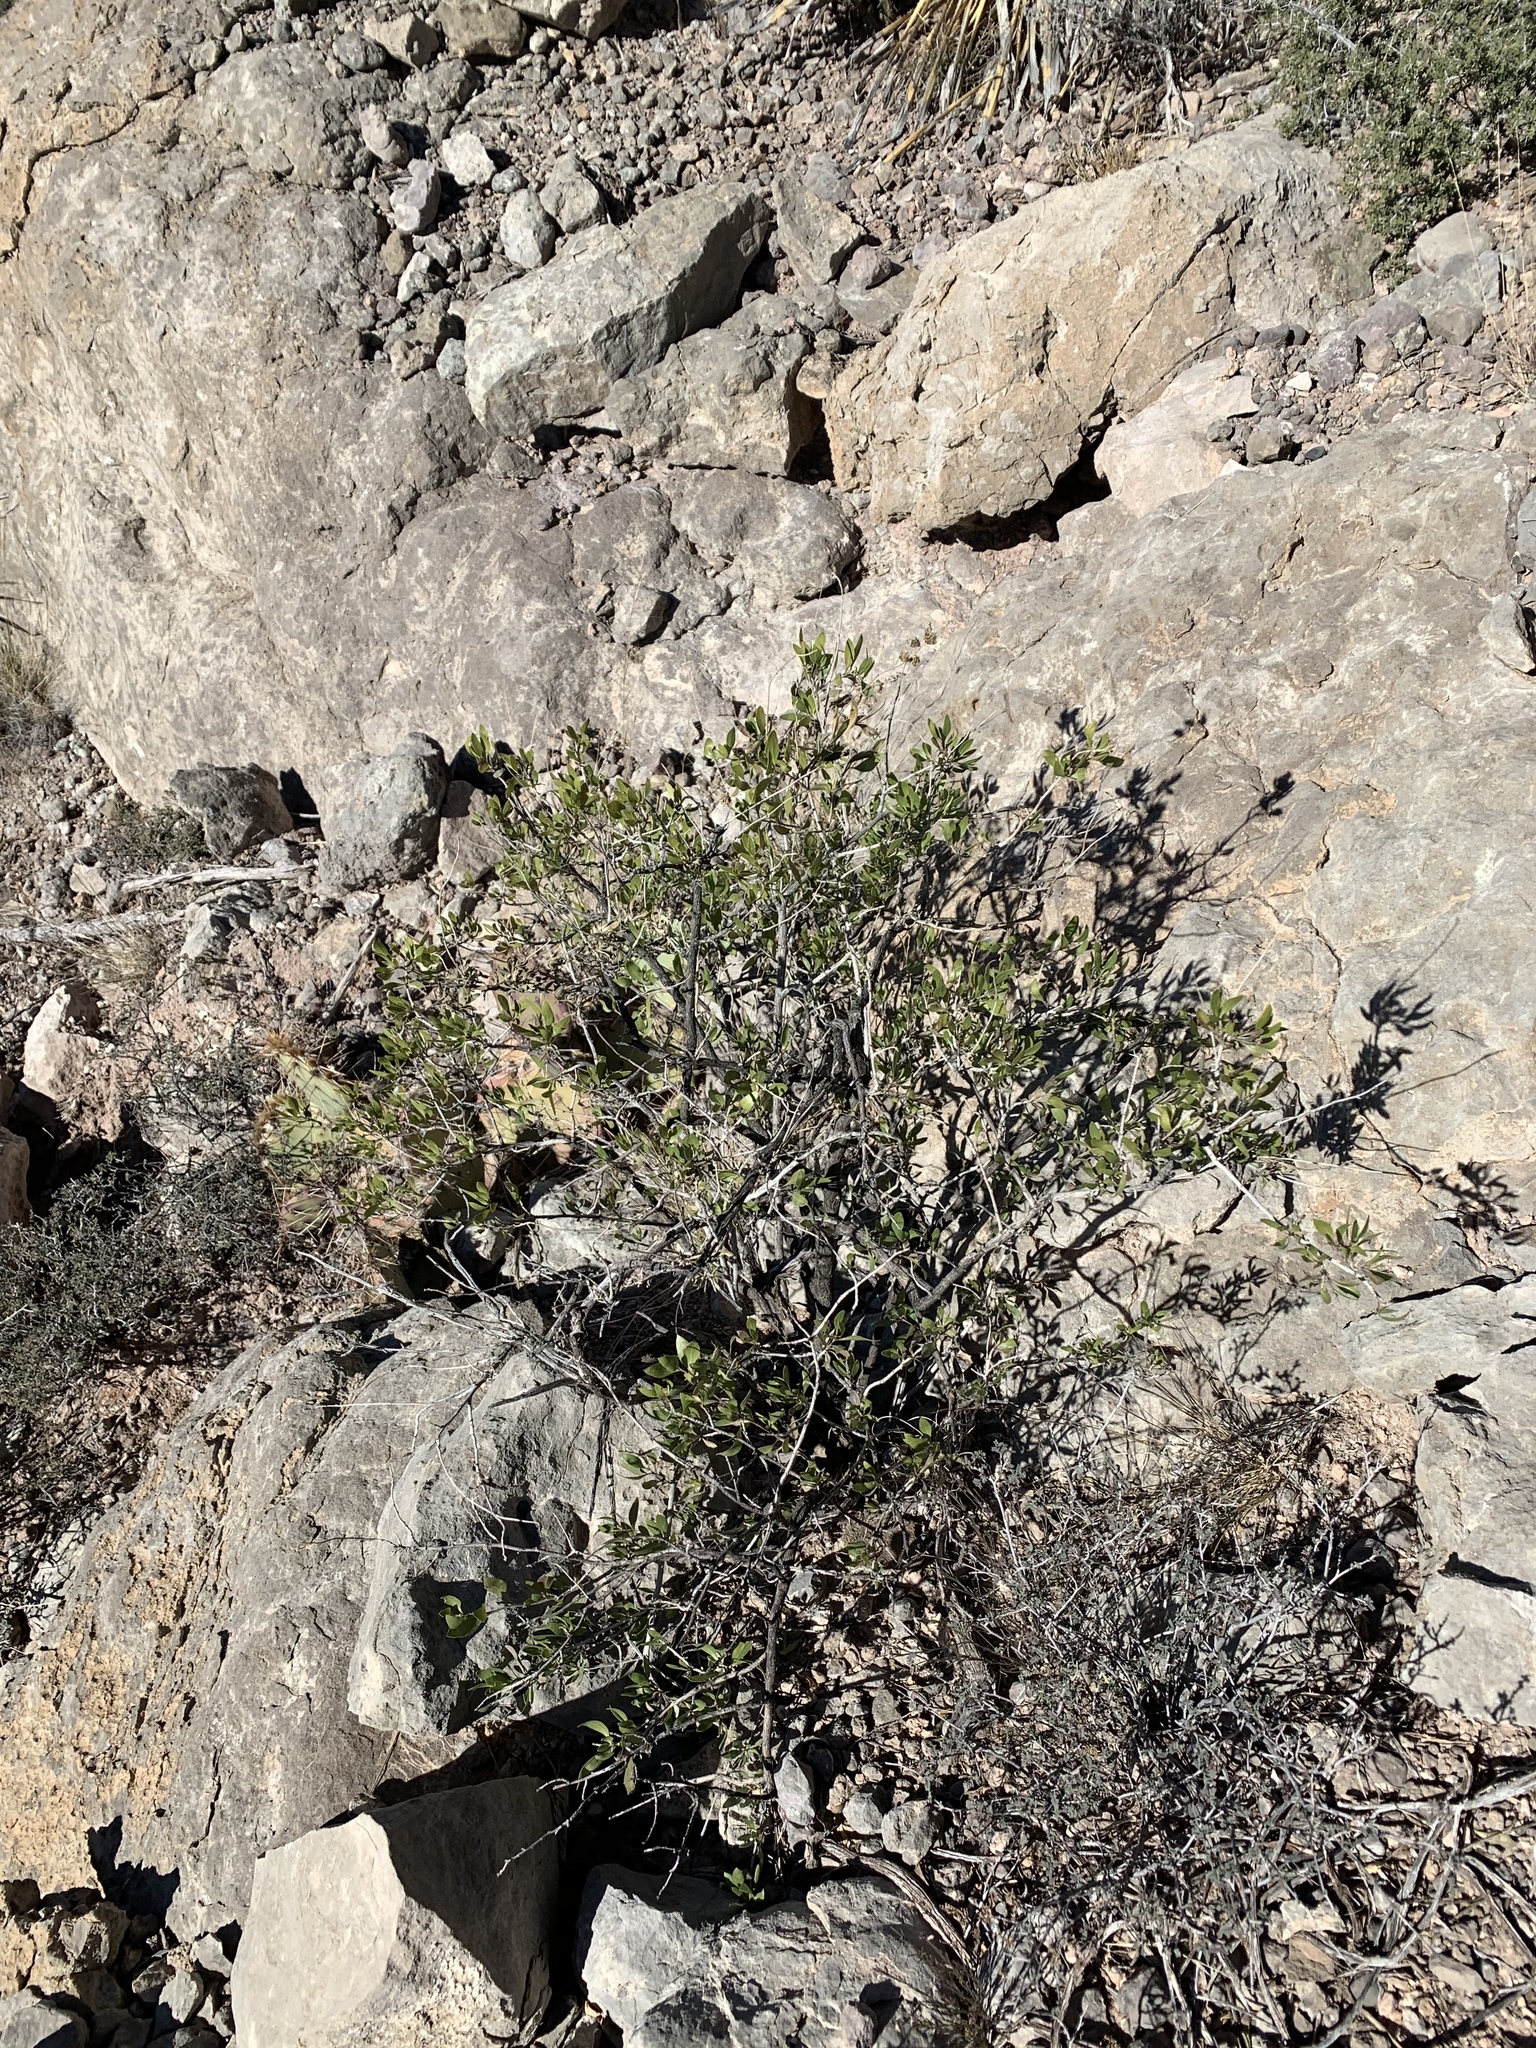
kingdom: Plantae
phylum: Tracheophyta
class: Magnoliopsida
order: Asterales
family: Asteraceae
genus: Flourensia
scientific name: Flourensia cernua
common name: Varnishbush
